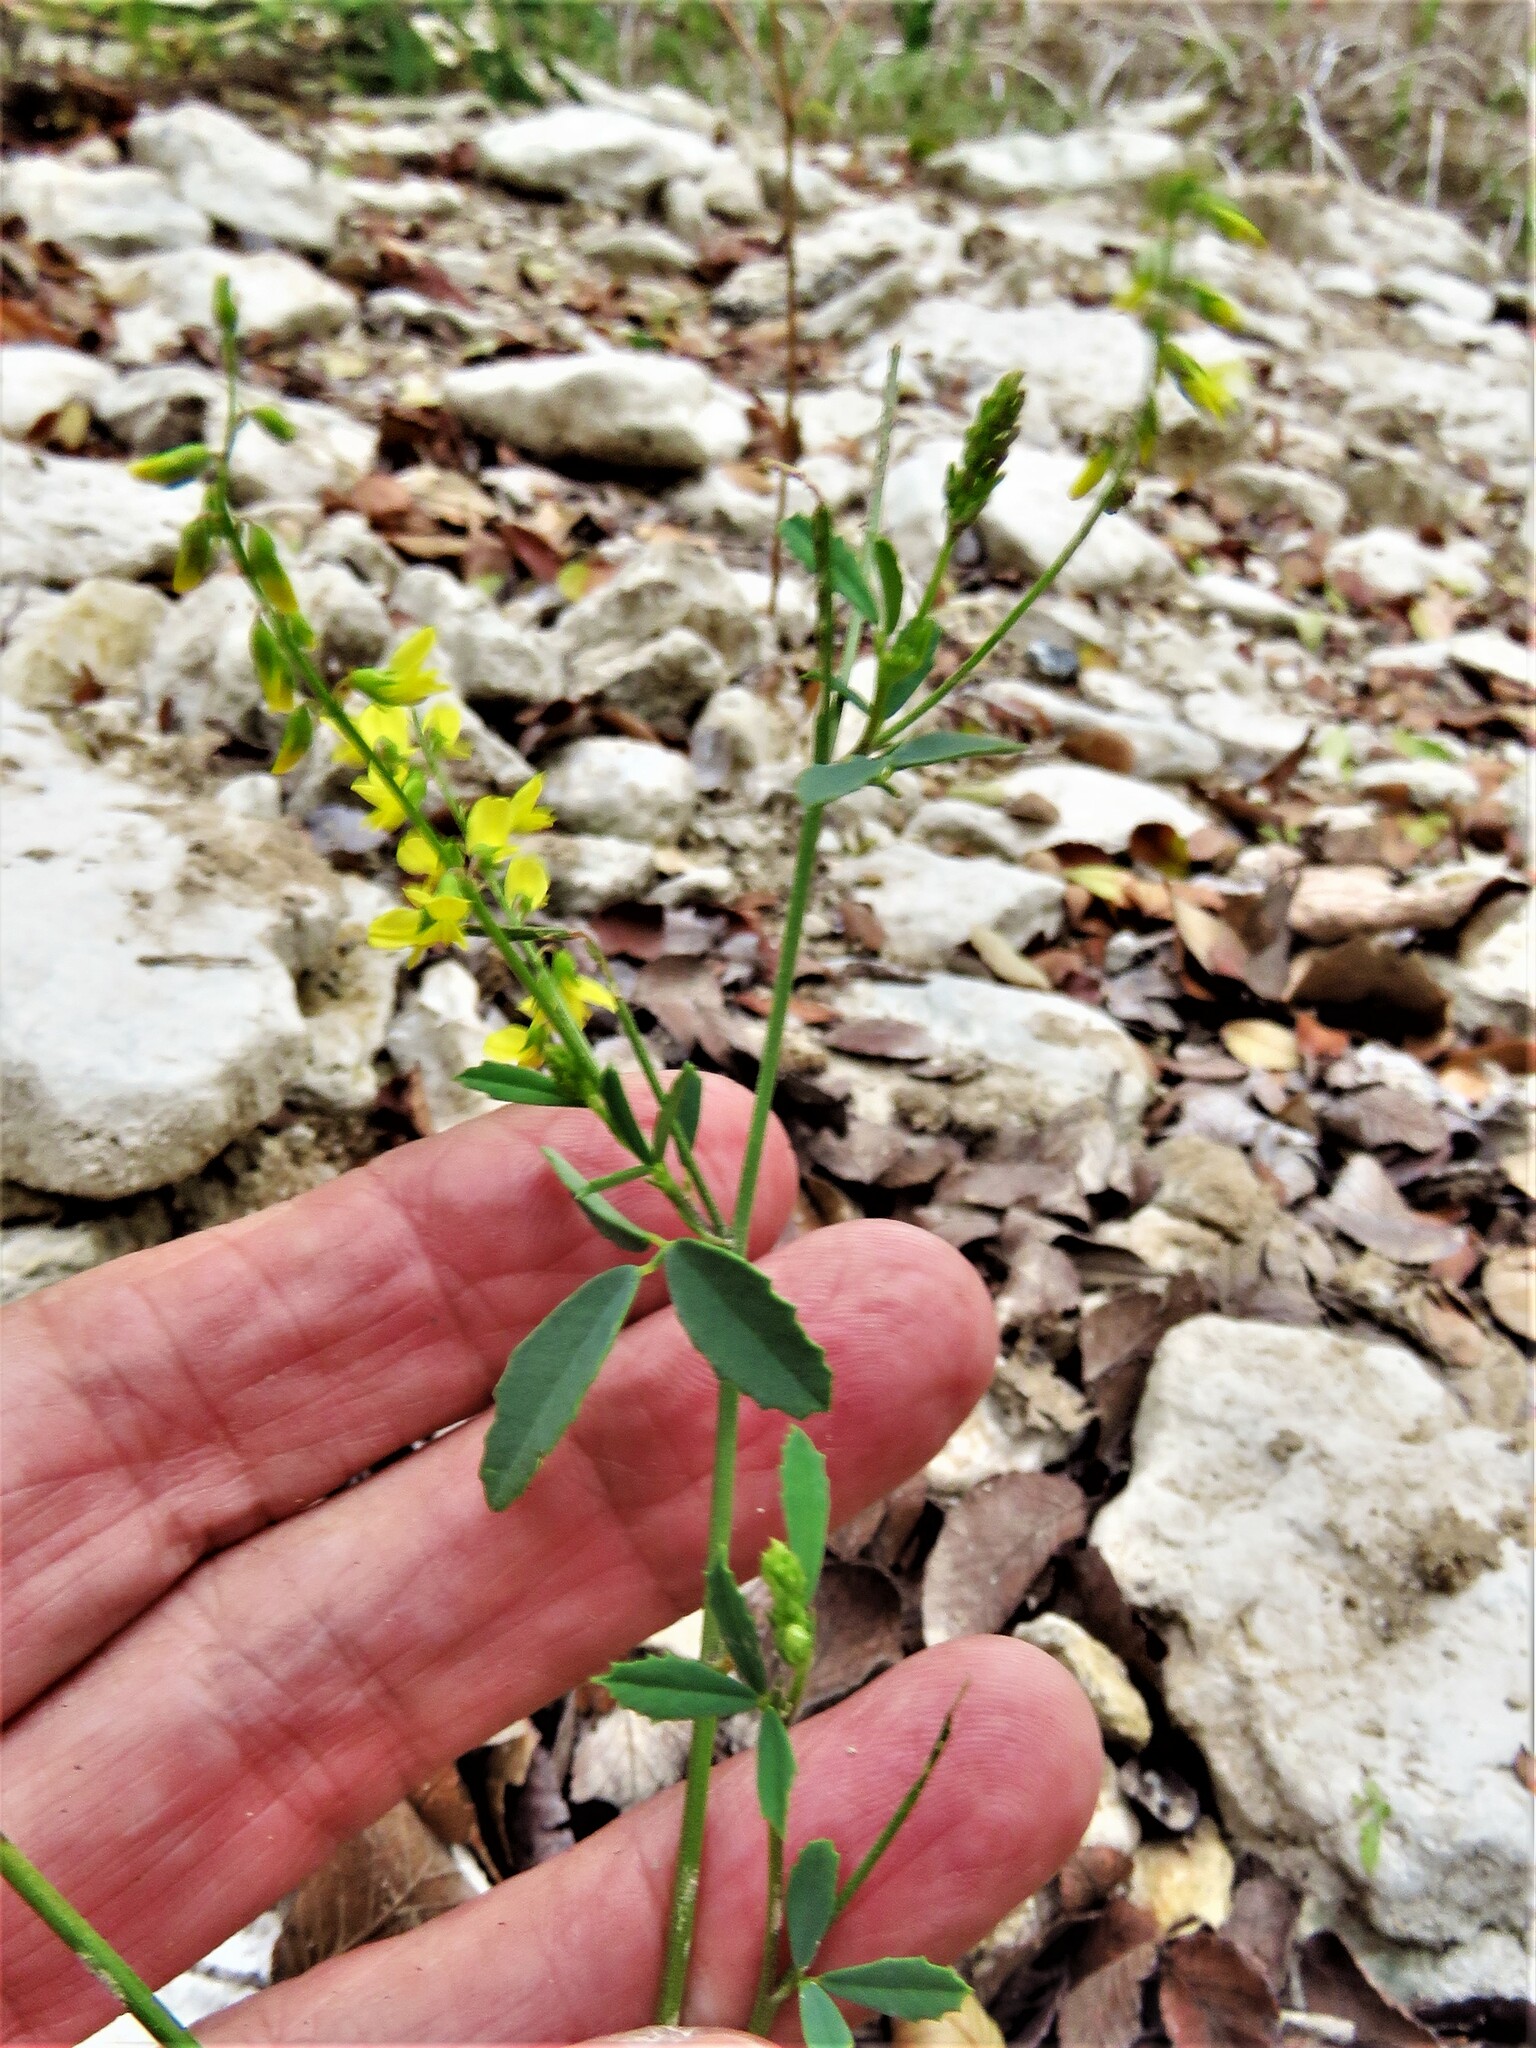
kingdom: Plantae
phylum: Tracheophyta
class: Magnoliopsida
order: Fabales
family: Fabaceae
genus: Melilotus
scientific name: Melilotus officinalis
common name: Sweetclover
